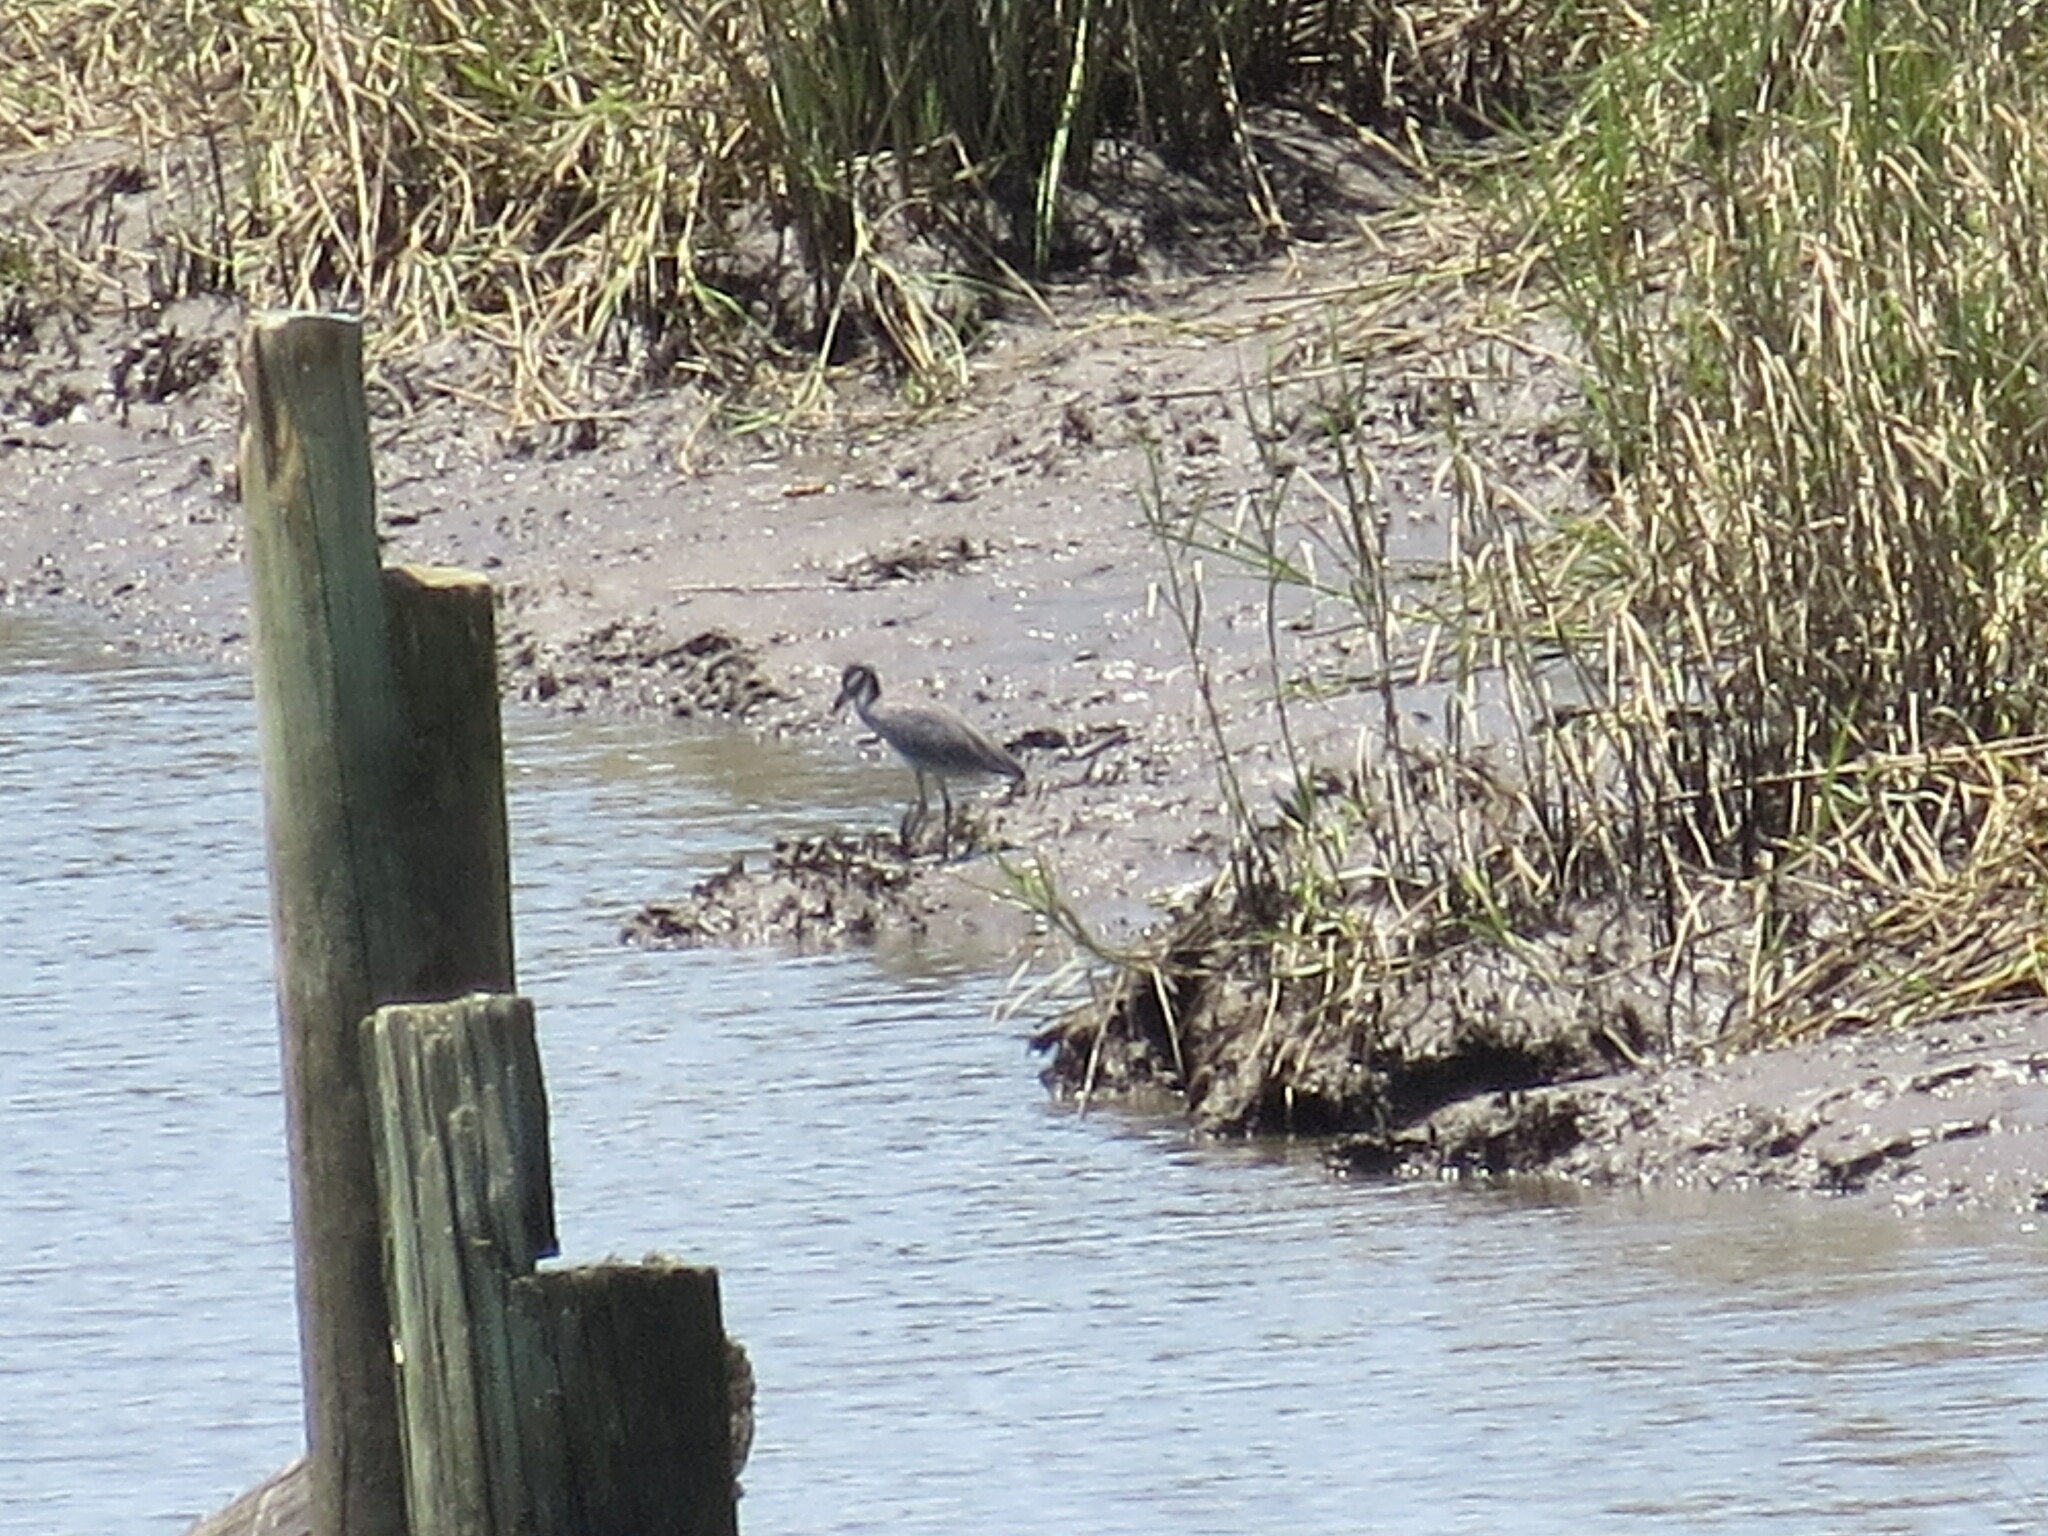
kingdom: Animalia
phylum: Chordata
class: Aves
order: Pelecaniformes
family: Ardeidae
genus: Nyctanassa
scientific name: Nyctanassa violacea
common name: Yellow-crowned night heron
